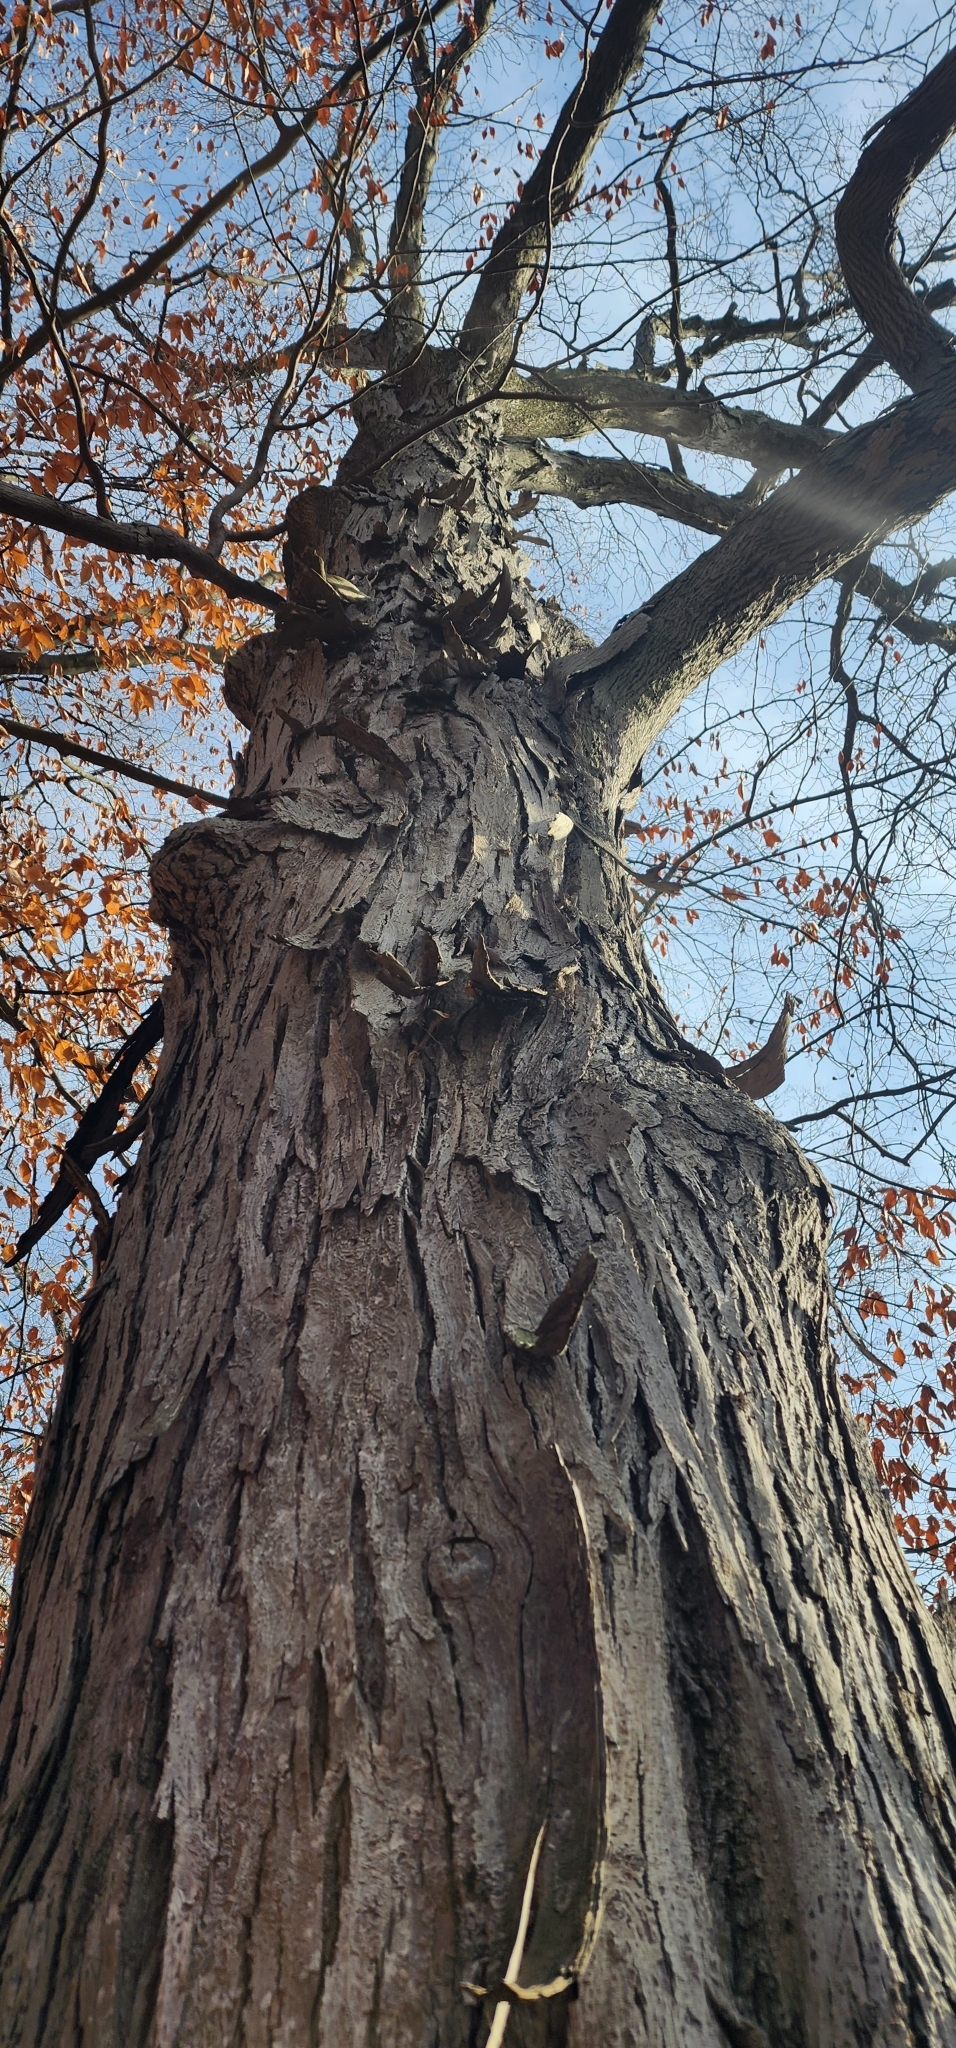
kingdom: Plantae
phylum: Tracheophyta
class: Magnoliopsida
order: Fagales
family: Juglandaceae
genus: Carya
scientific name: Carya ovata
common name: Shagbark hickory
